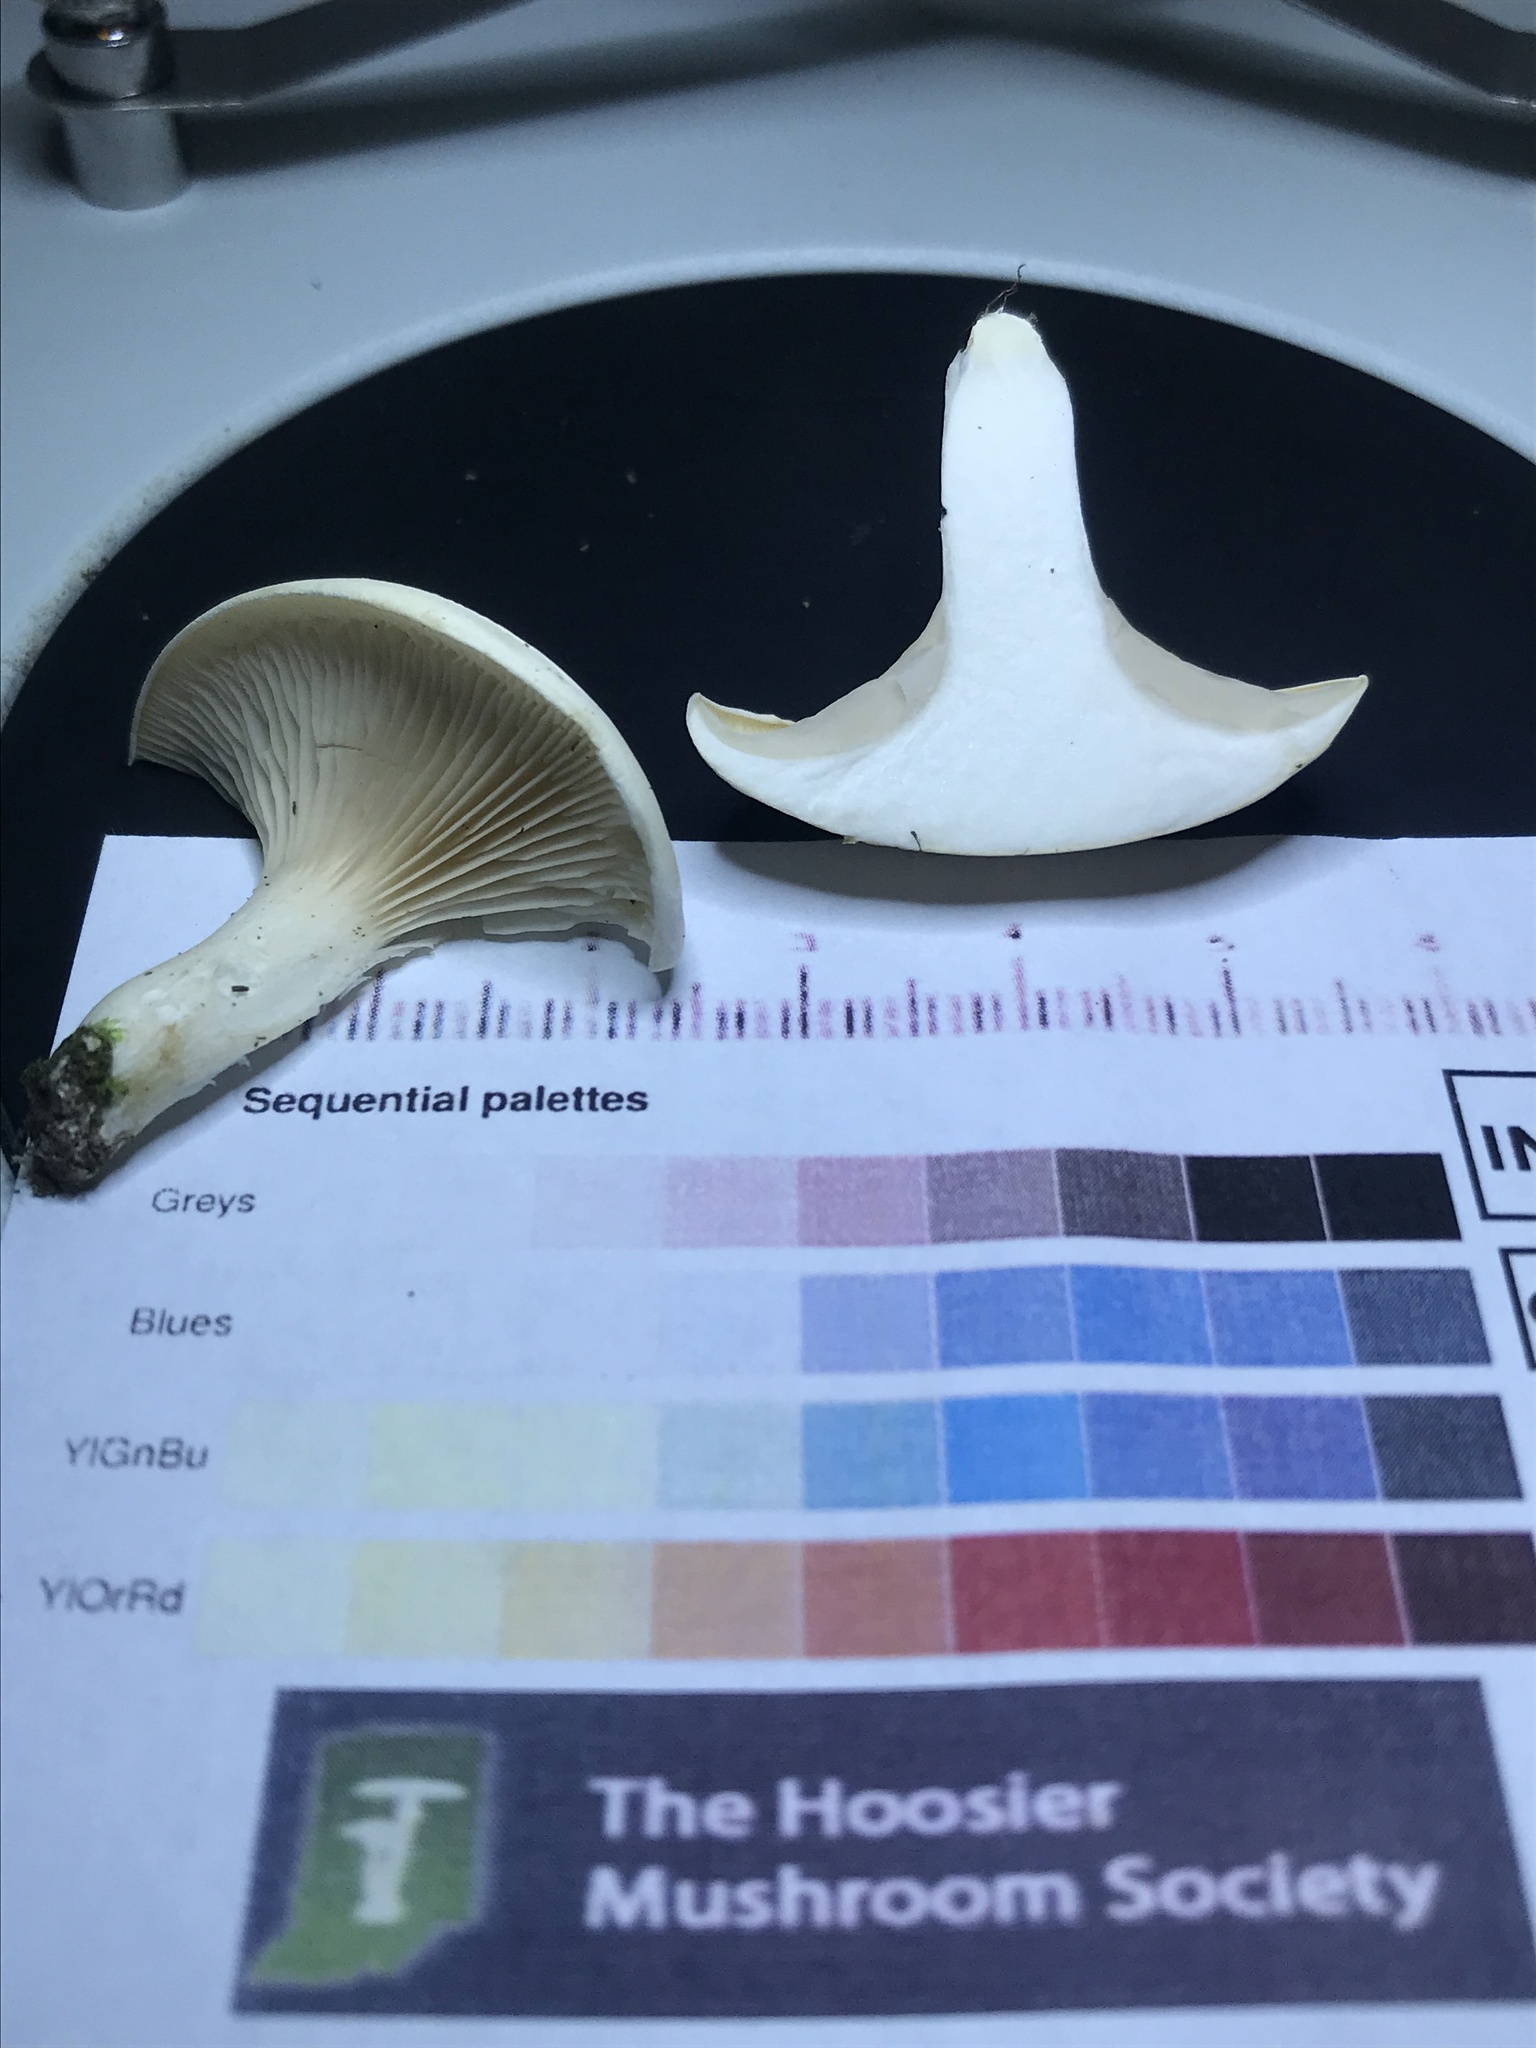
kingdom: Fungi
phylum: Basidiomycota
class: Agaricomycetes
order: Agaricales
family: Entolomataceae
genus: Clitopilus
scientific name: Clitopilus prunulus
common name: The miller
